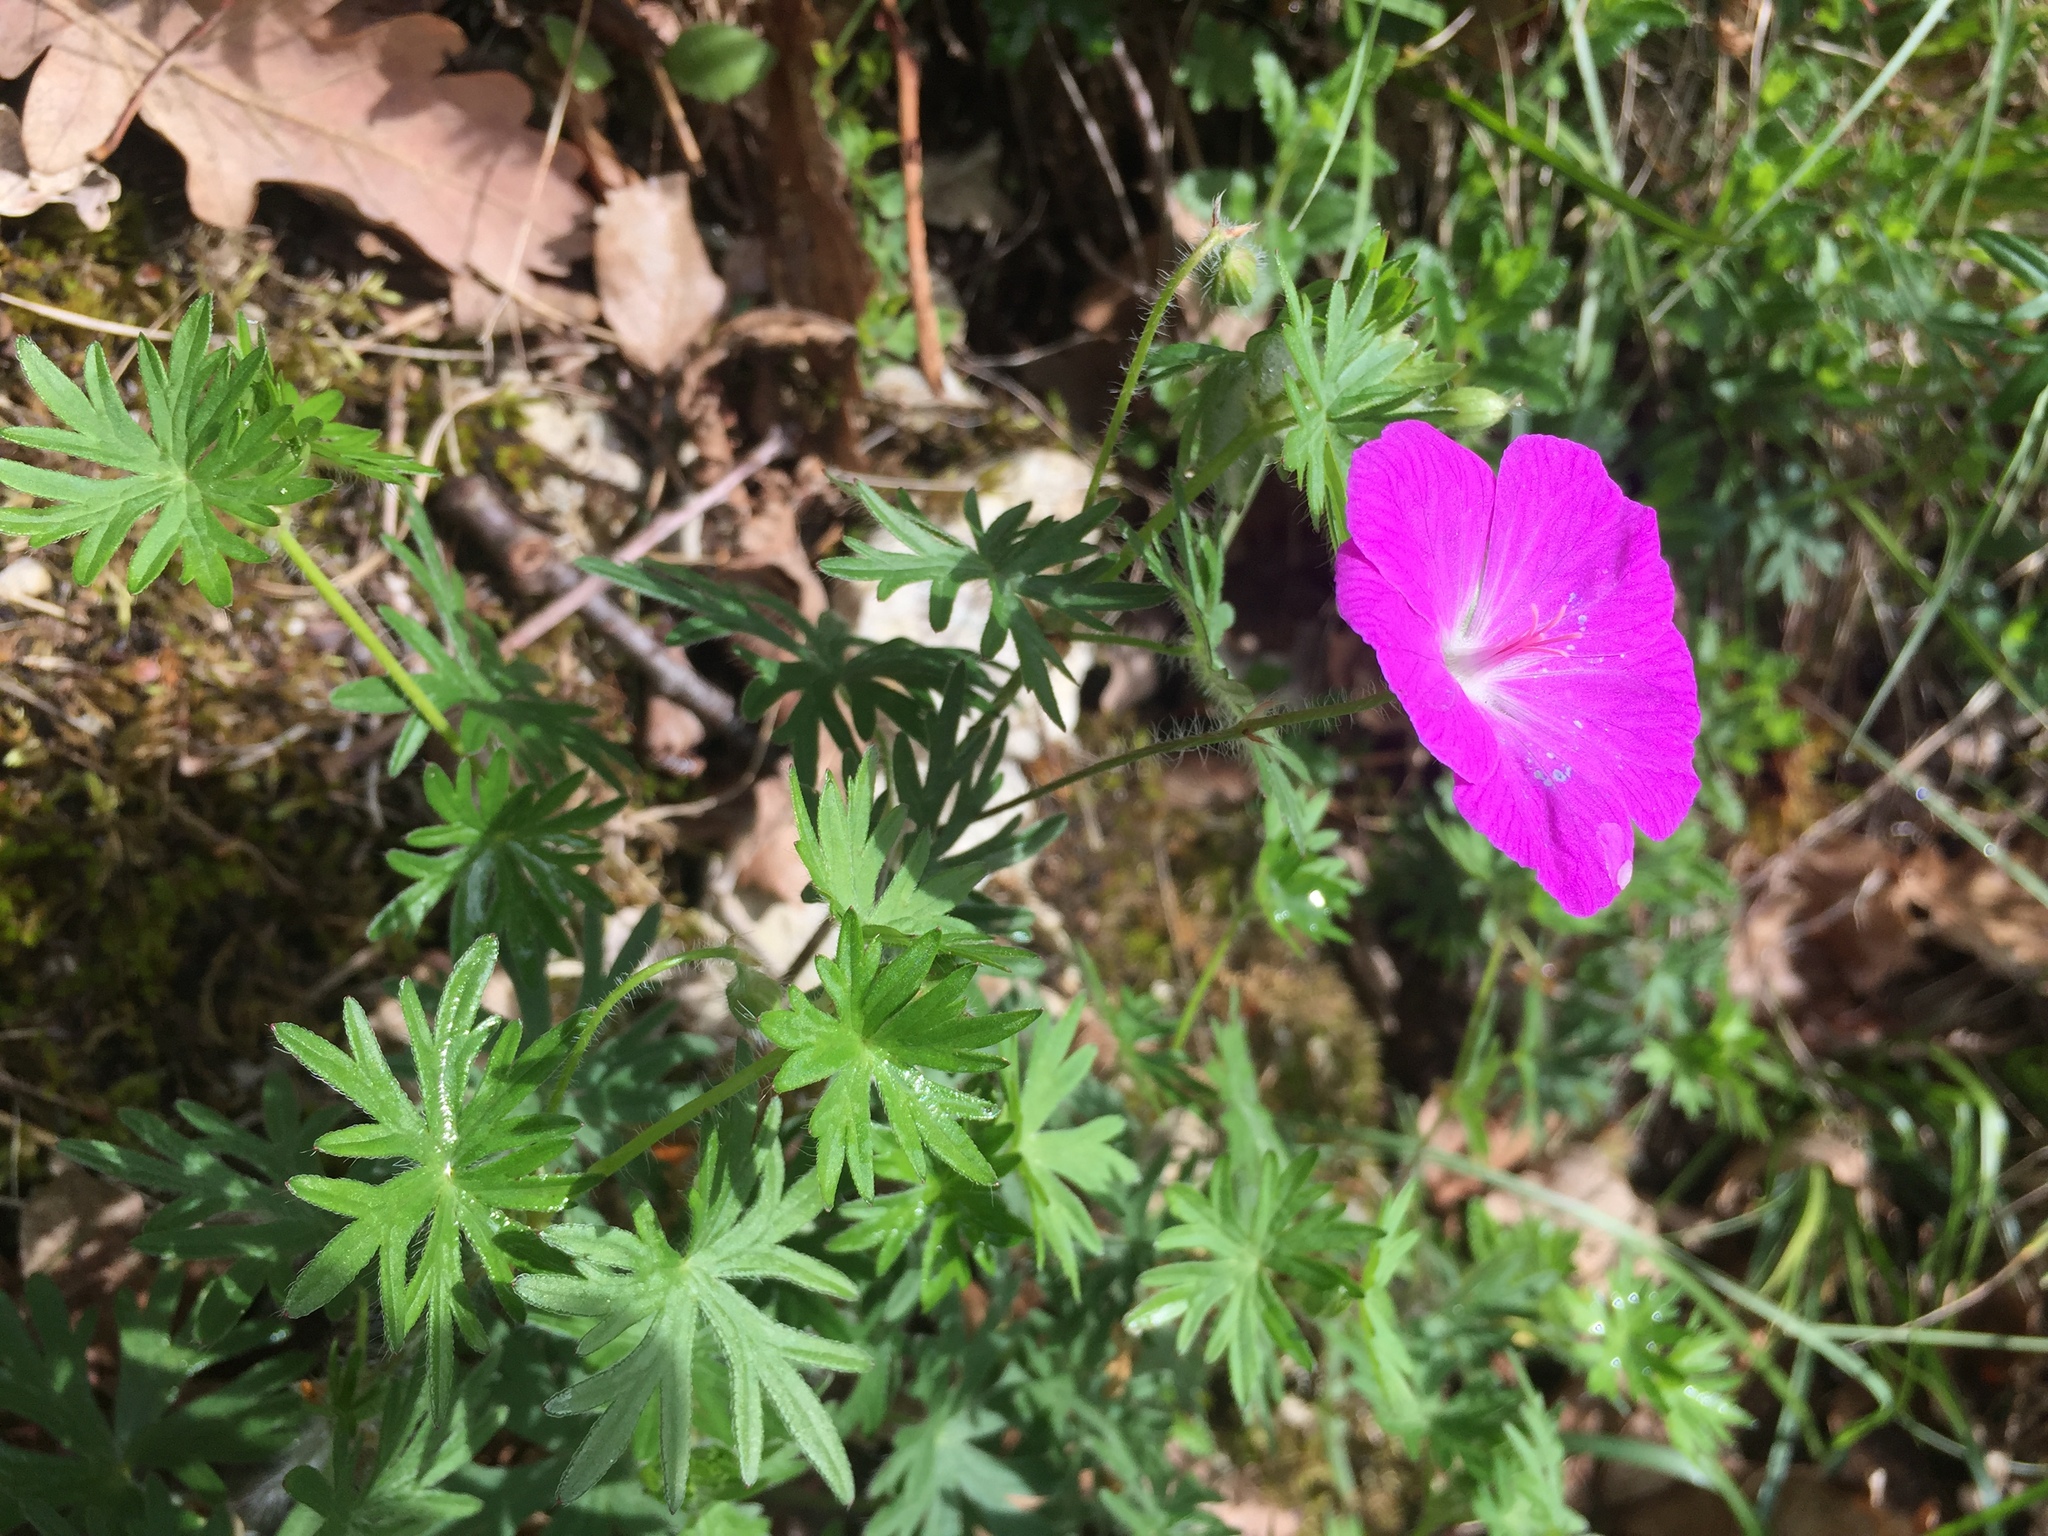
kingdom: Plantae
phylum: Tracheophyta
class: Magnoliopsida
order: Geraniales
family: Geraniaceae
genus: Geranium
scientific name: Geranium sanguineum
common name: Bloody crane's-bill
